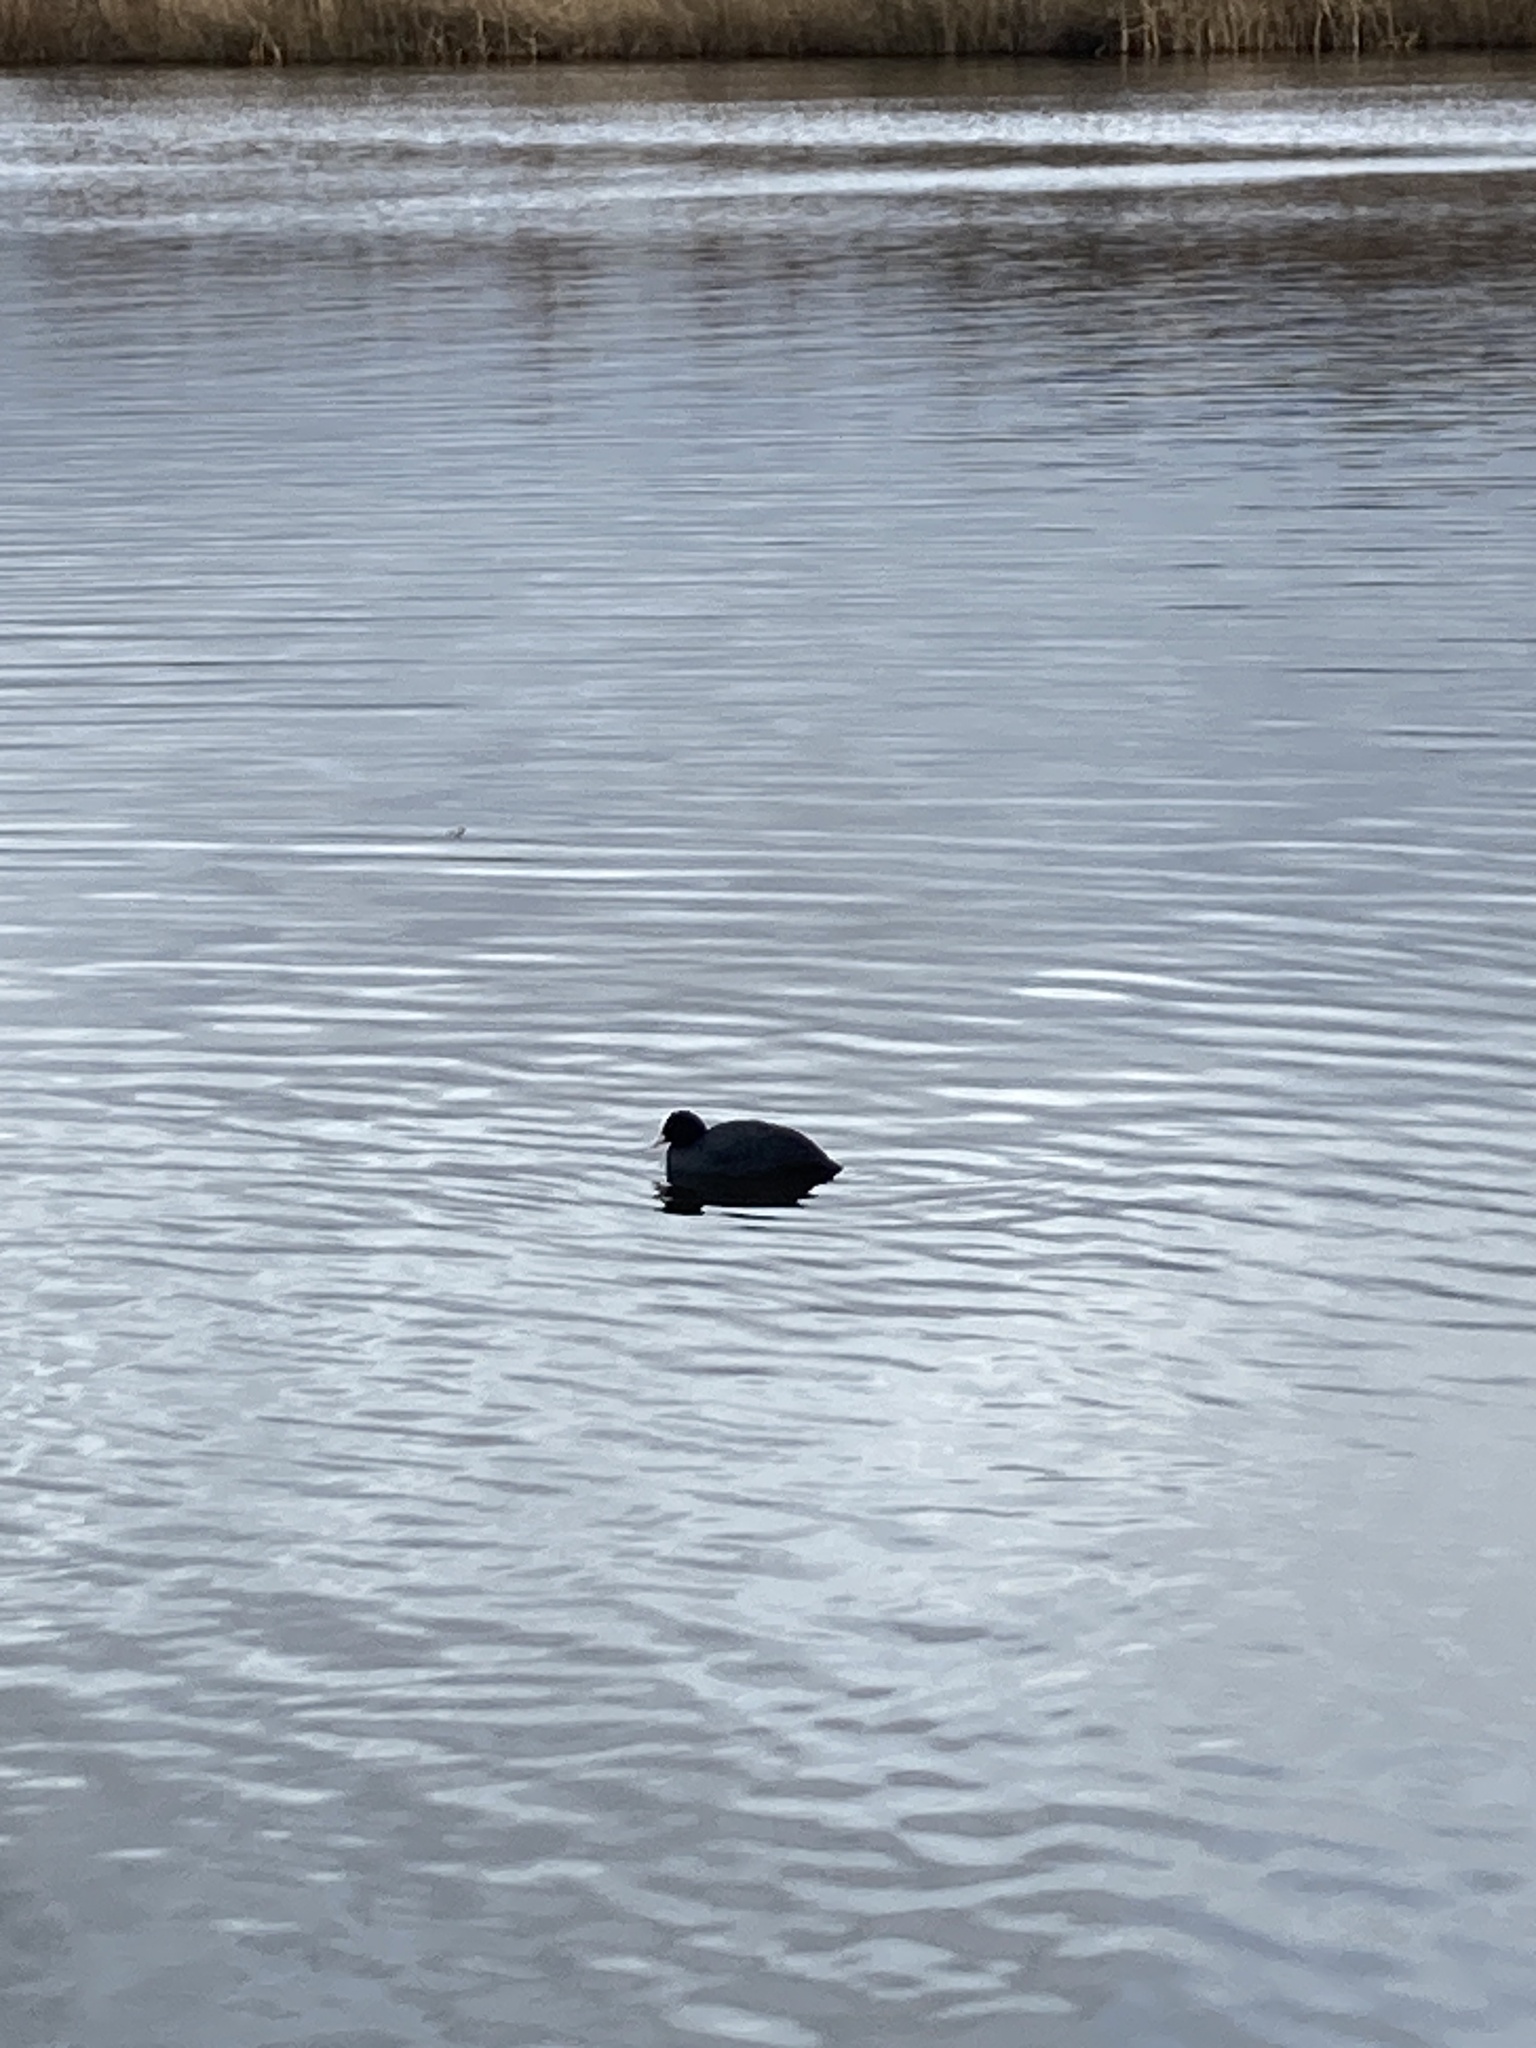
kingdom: Animalia
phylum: Chordata
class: Aves
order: Gruiformes
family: Rallidae
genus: Fulica
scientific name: Fulica atra
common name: Eurasian coot
